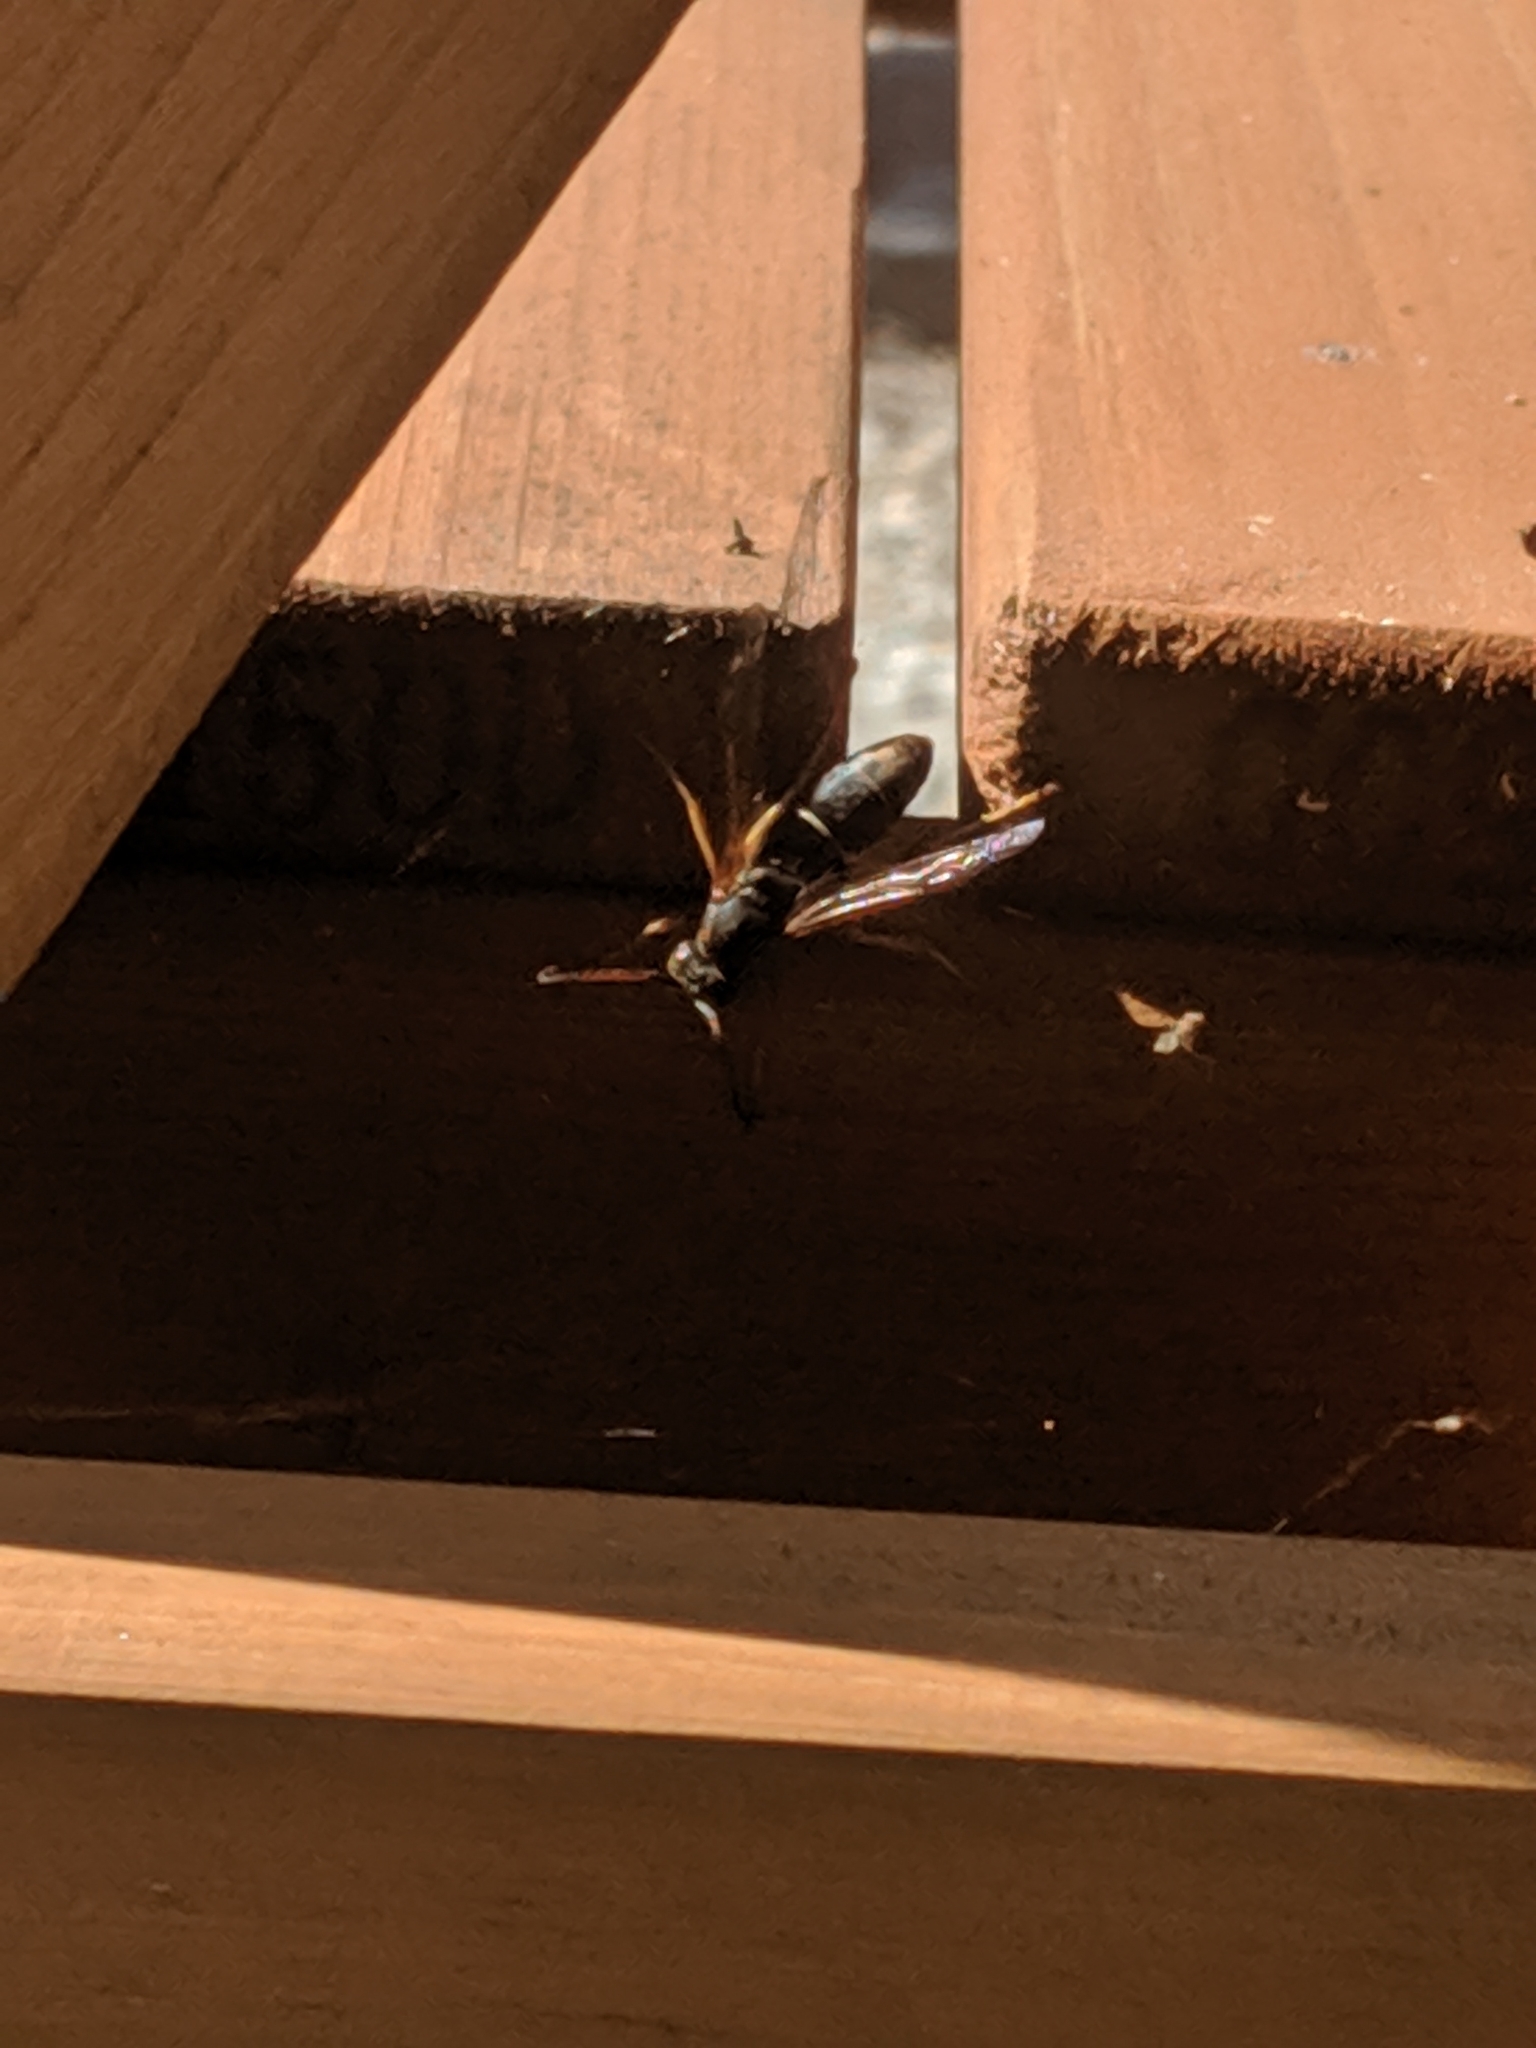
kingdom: Animalia
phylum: Arthropoda
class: Insecta
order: Hymenoptera
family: Eumenidae
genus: Polistes
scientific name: Polistes fuscatus
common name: Dark paper wasp
